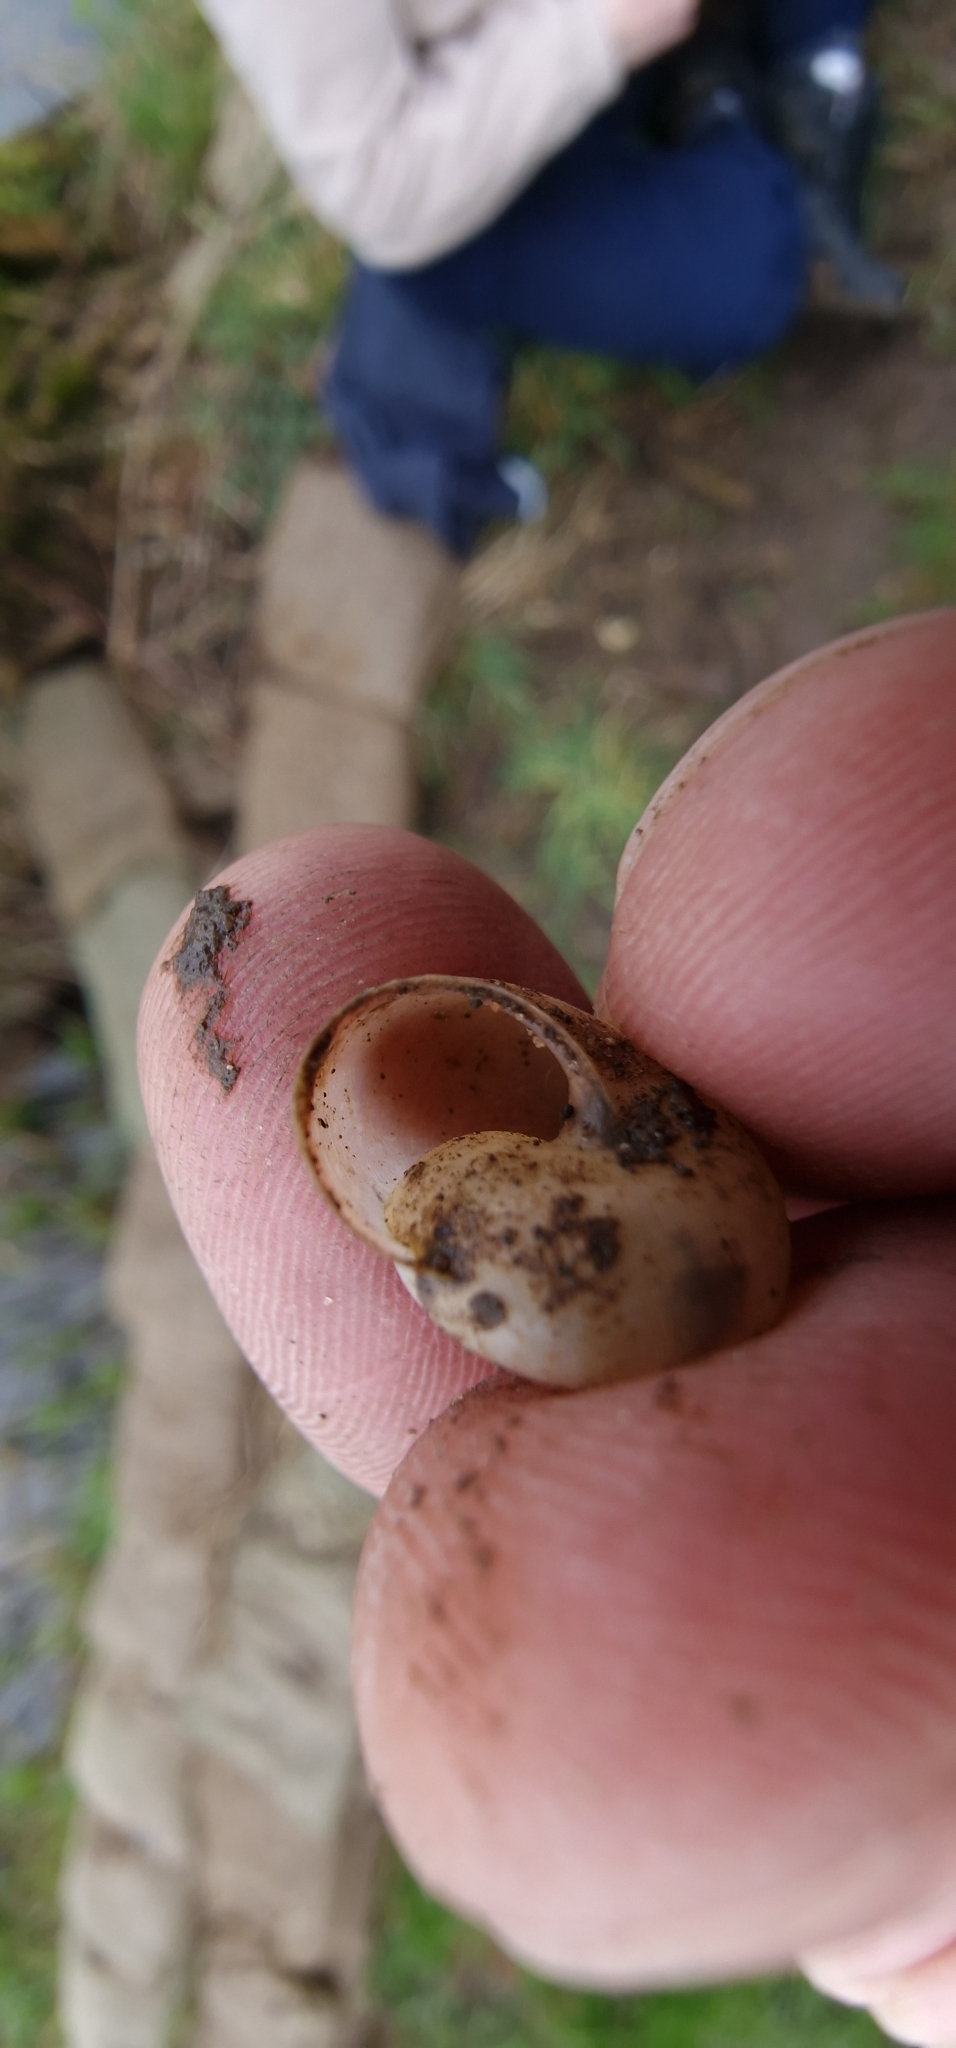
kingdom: Animalia
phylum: Mollusca
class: Gastropoda
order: Stylommatophora
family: Hygromiidae
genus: Monacha
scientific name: Monacha cantiana
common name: Kentish snail
